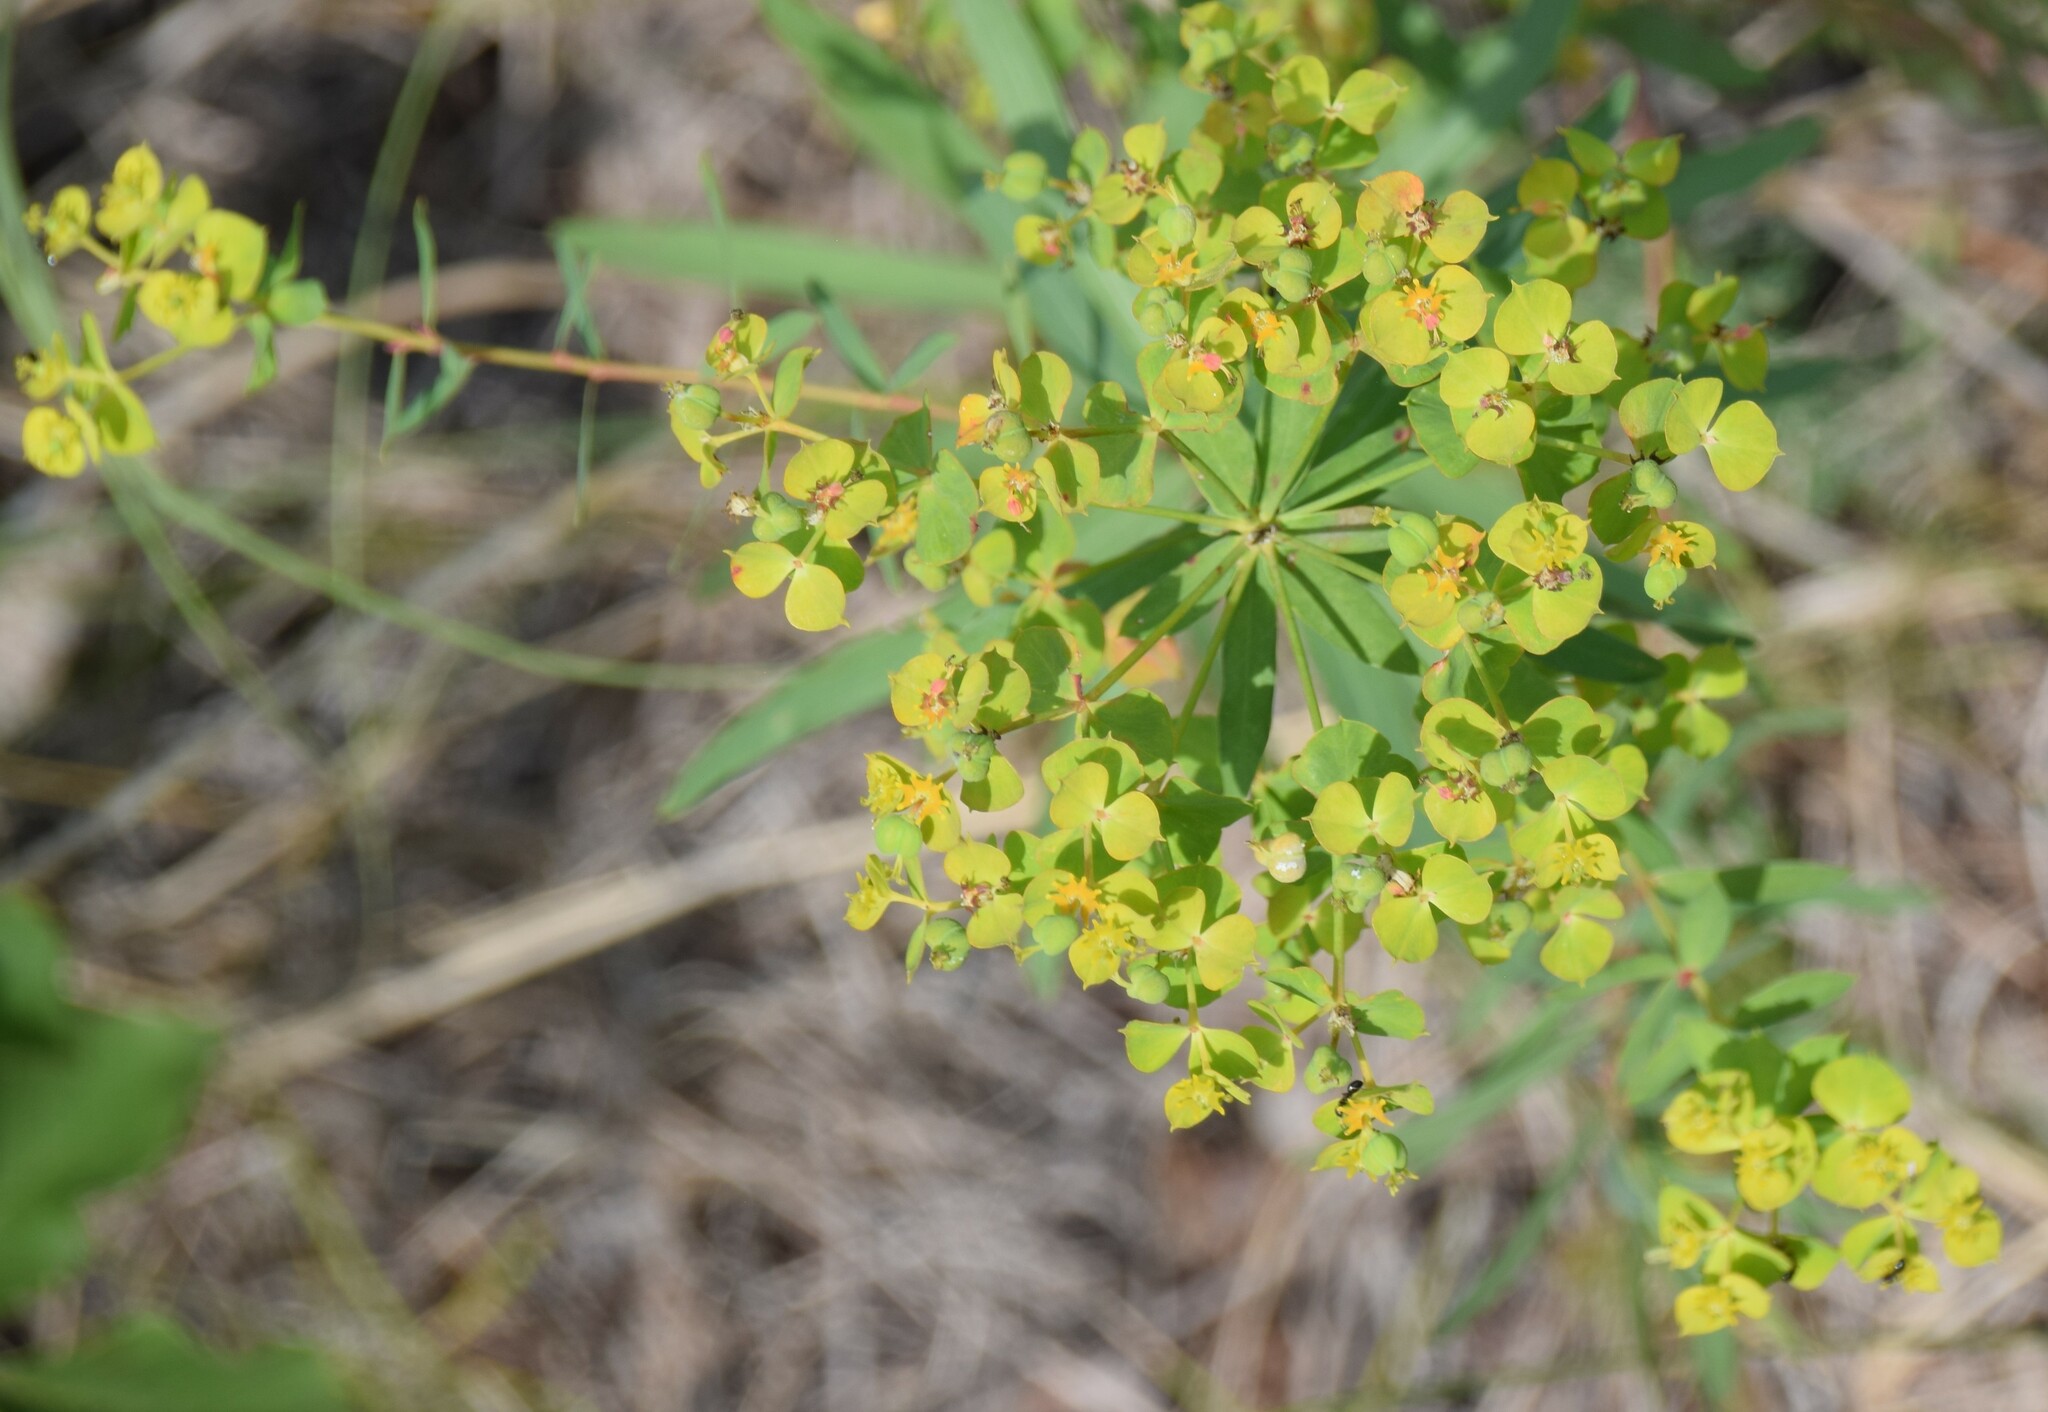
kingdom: Plantae
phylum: Tracheophyta
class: Magnoliopsida
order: Malpighiales
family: Euphorbiaceae
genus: Euphorbia
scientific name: Euphorbia virgata
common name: Leafy spurge
